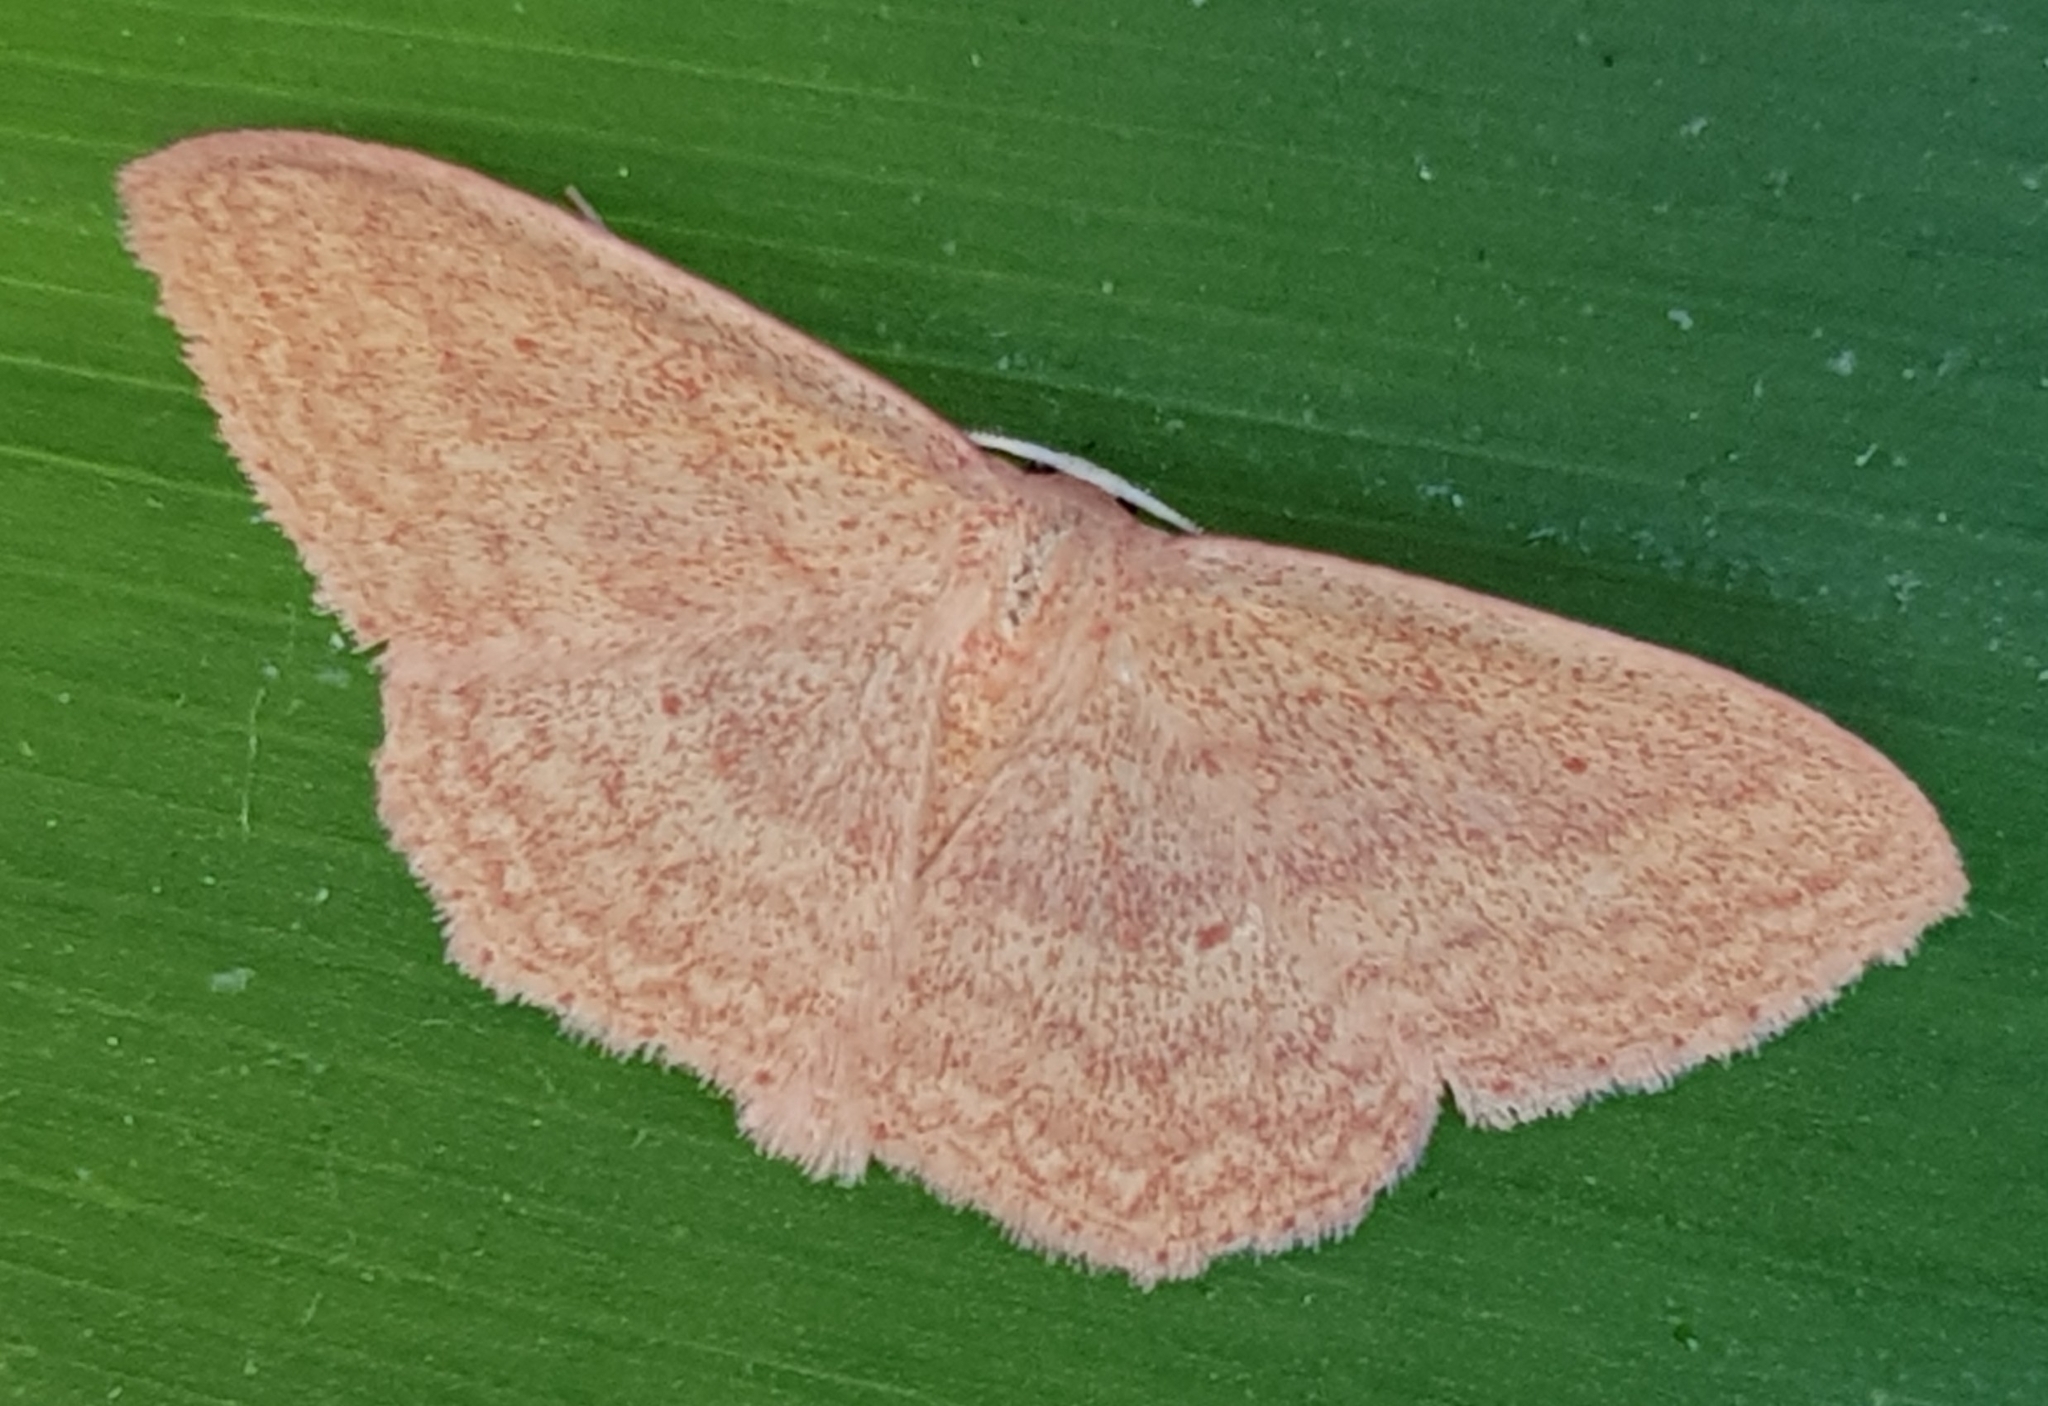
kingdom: Animalia
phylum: Arthropoda
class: Insecta
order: Lepidoptera
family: Geometridae
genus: Scopula
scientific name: Scopula irrorata
